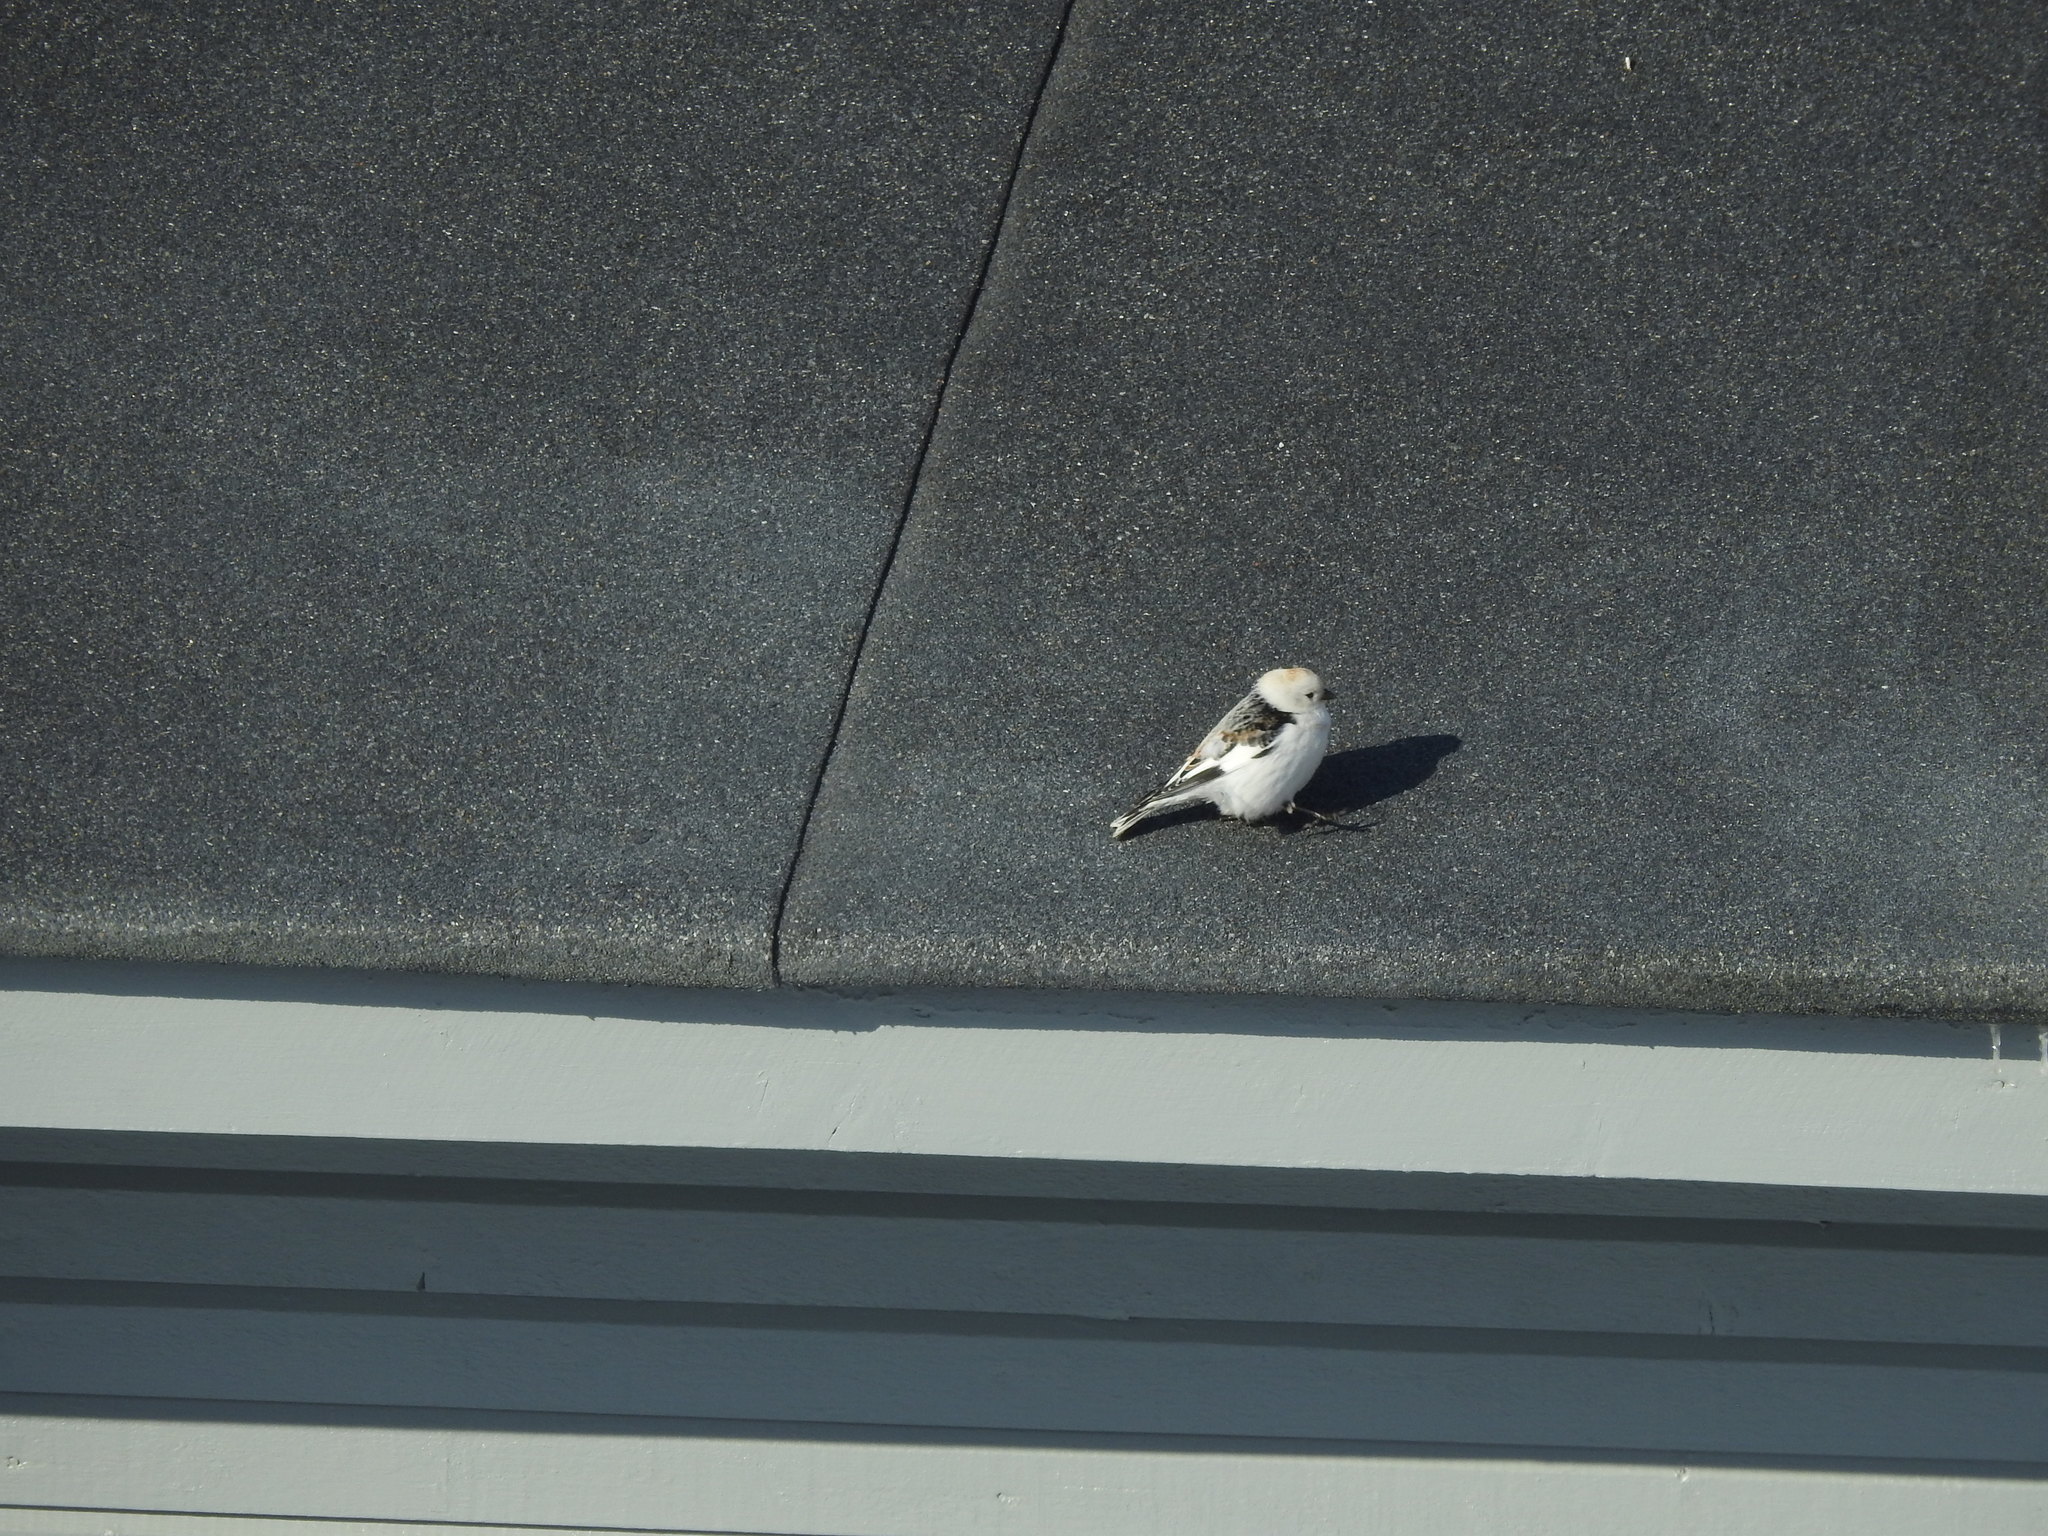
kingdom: Animalia
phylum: Chordata
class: Aves
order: Passeriformes
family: Calcariidae
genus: Plectrophenax
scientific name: Plectrophenax nivalis
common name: Snow bunting
